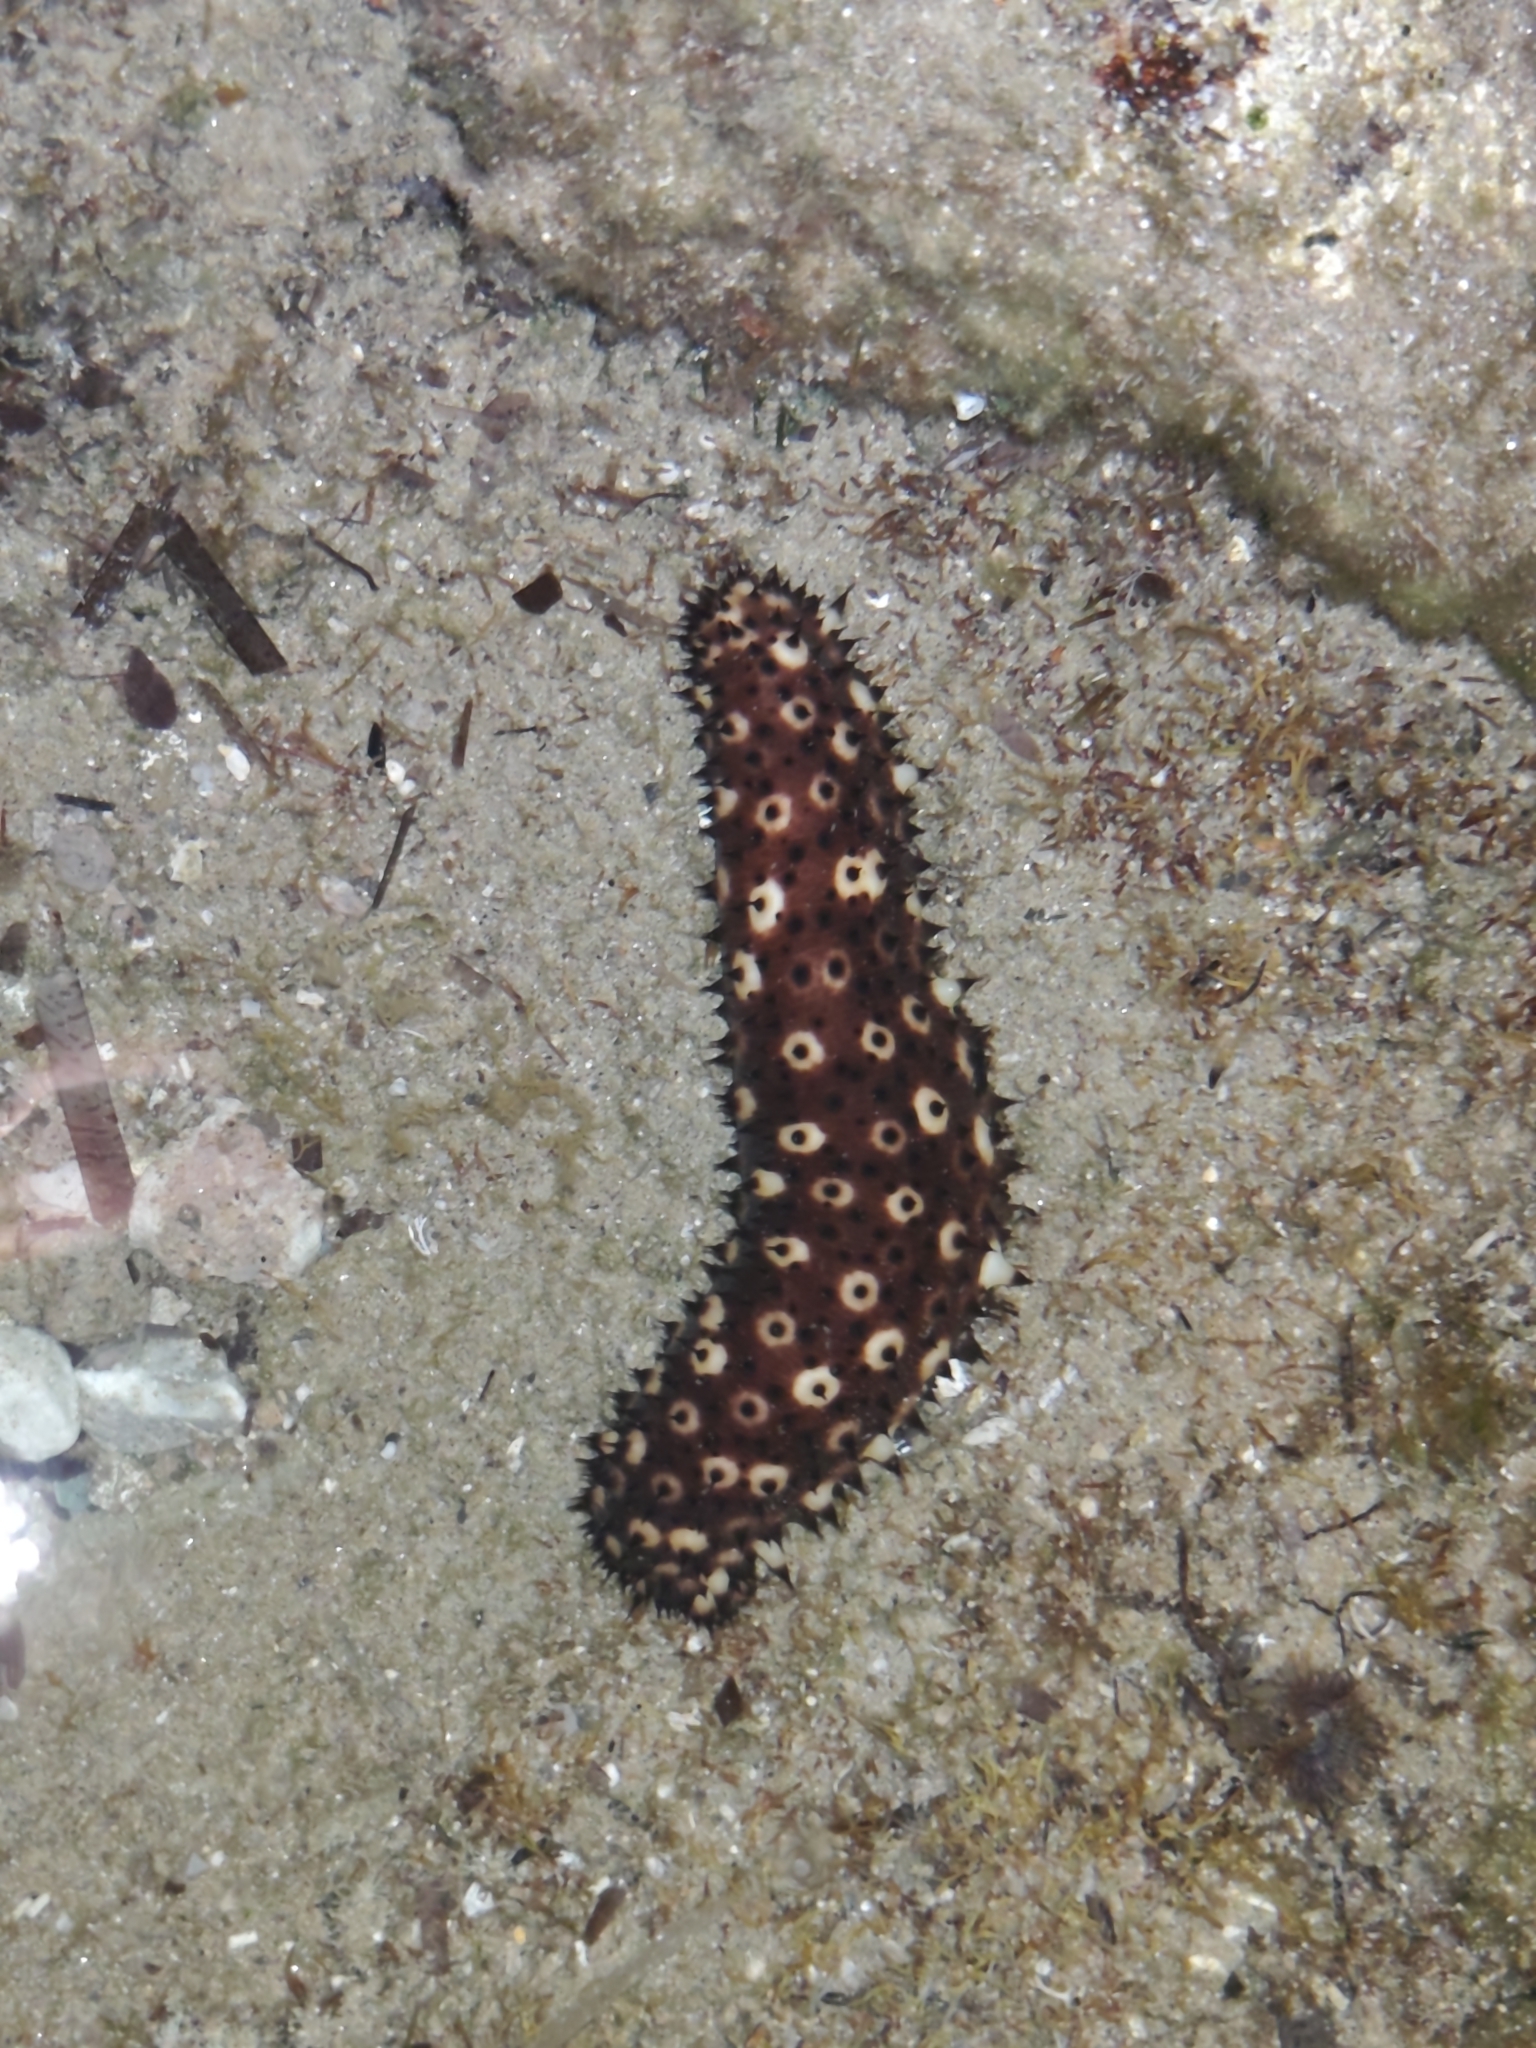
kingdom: Animalia
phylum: Echinodermata
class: Holothuroidea
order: Holothuriida
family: Holothuriidae
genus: Holothuria
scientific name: Holothuria sanctori
